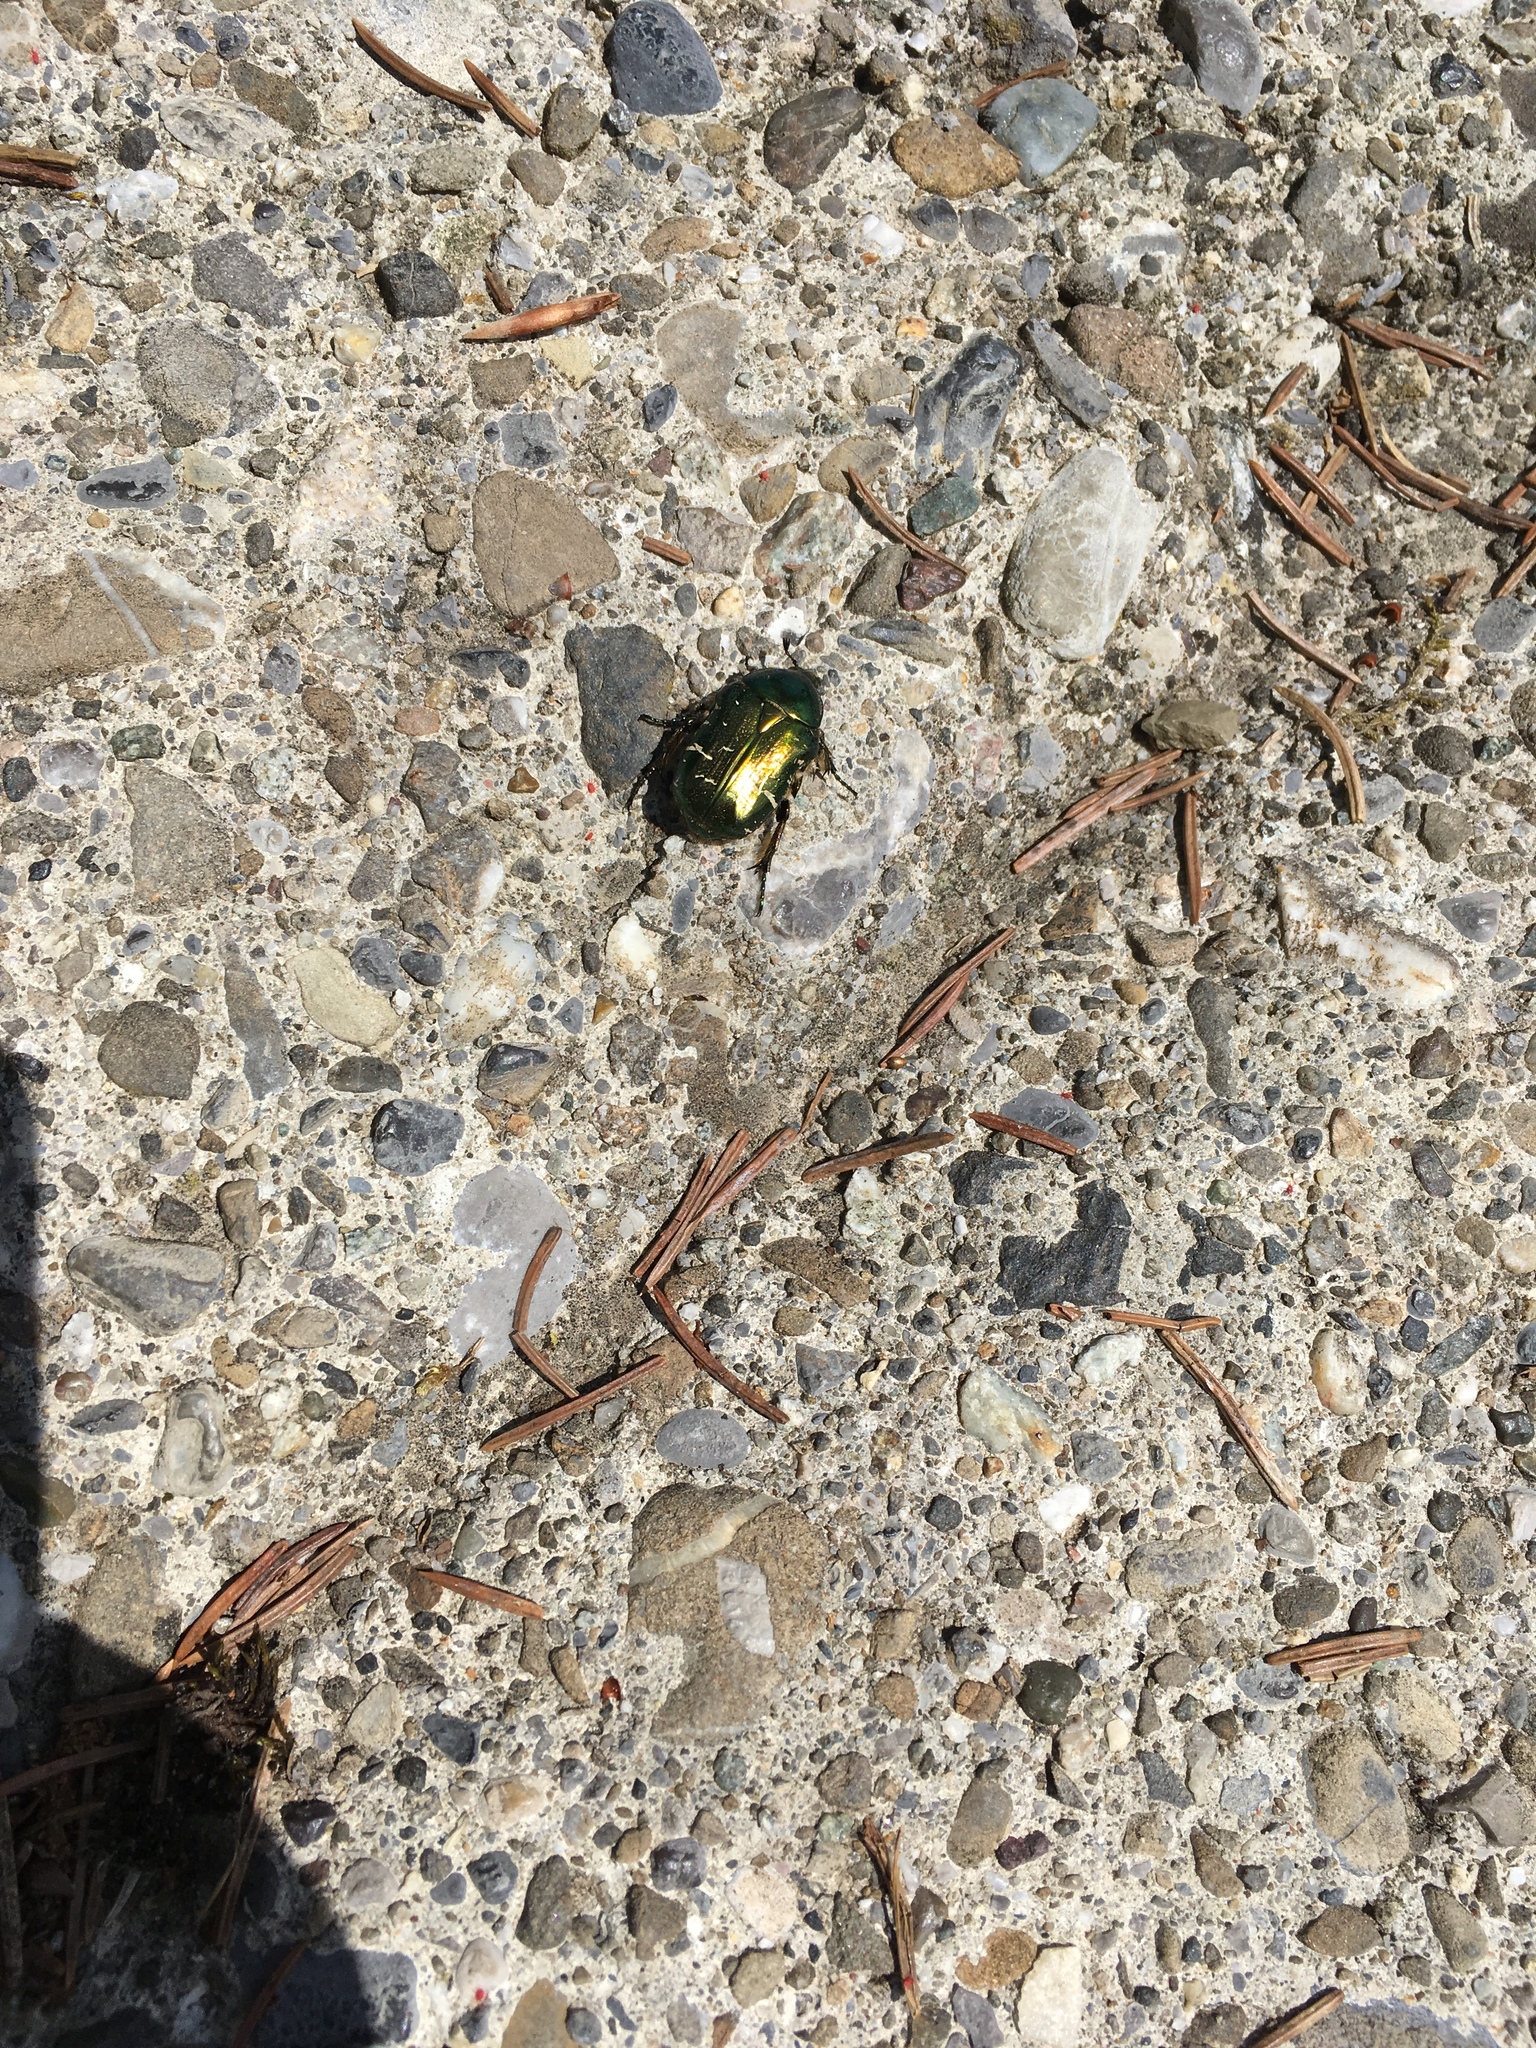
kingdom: Animalia
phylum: Arthropoda
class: Insecta
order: Coleoptera
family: Scarabaeidae
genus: Cetonia
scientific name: Cetonia aurata
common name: Rose chafer
